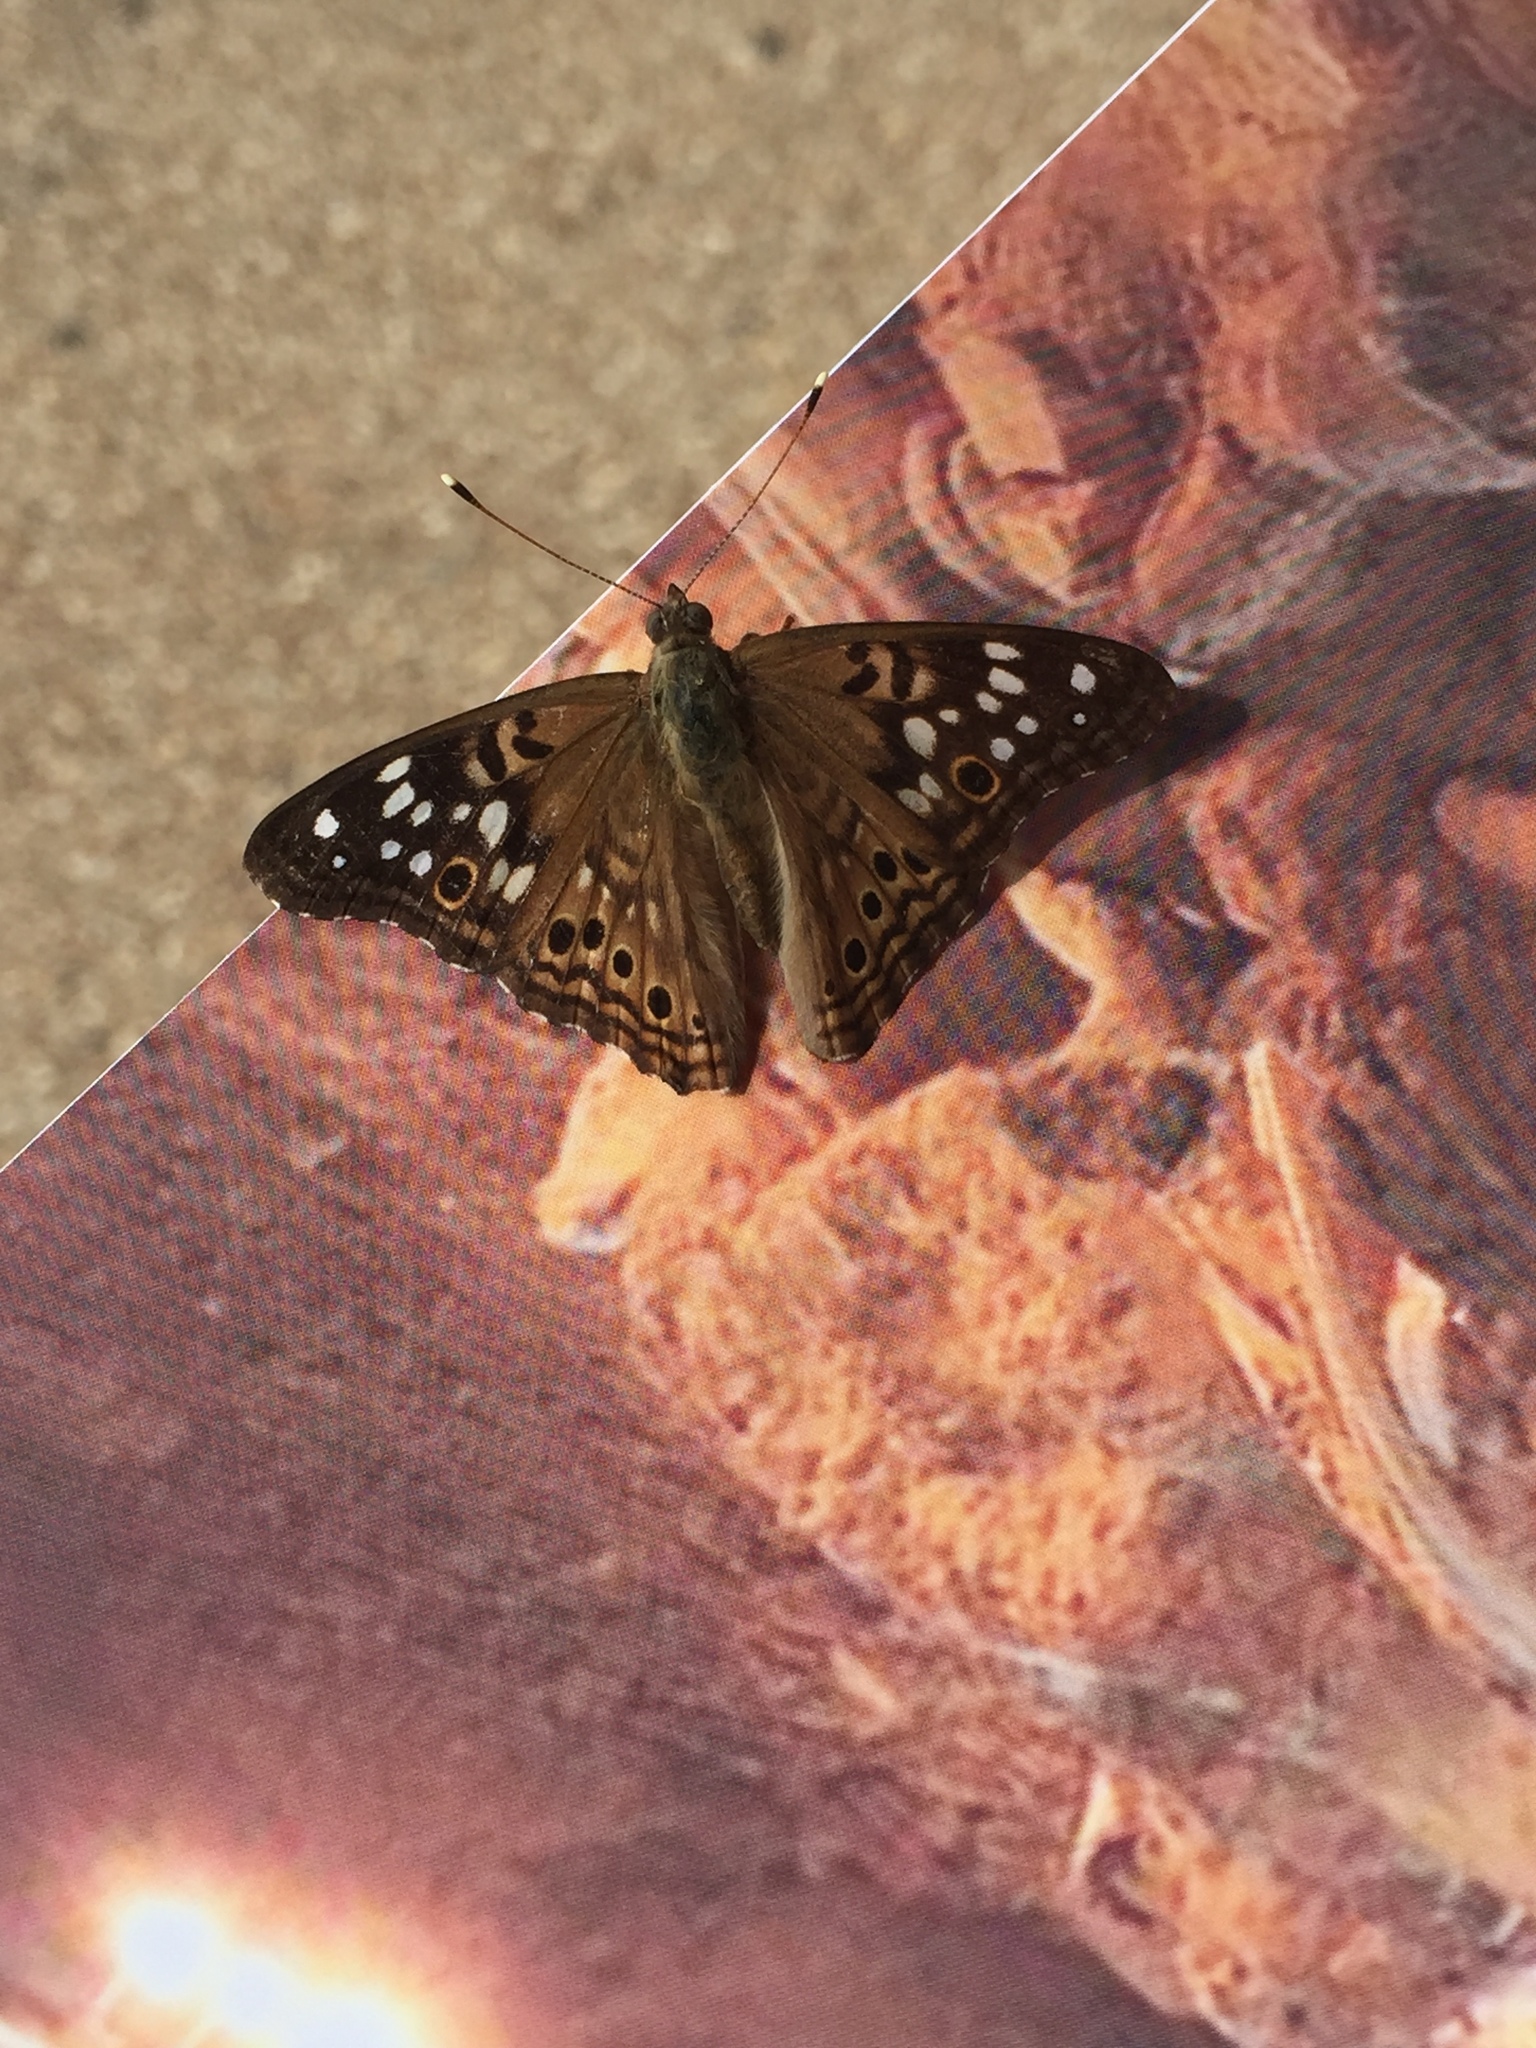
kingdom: Animalia
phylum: Arthropoda
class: Insecta
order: Lepidoptera
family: Nymphalidae
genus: Asterocampa
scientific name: Asterocampa celtis
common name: Hackberry emperor
